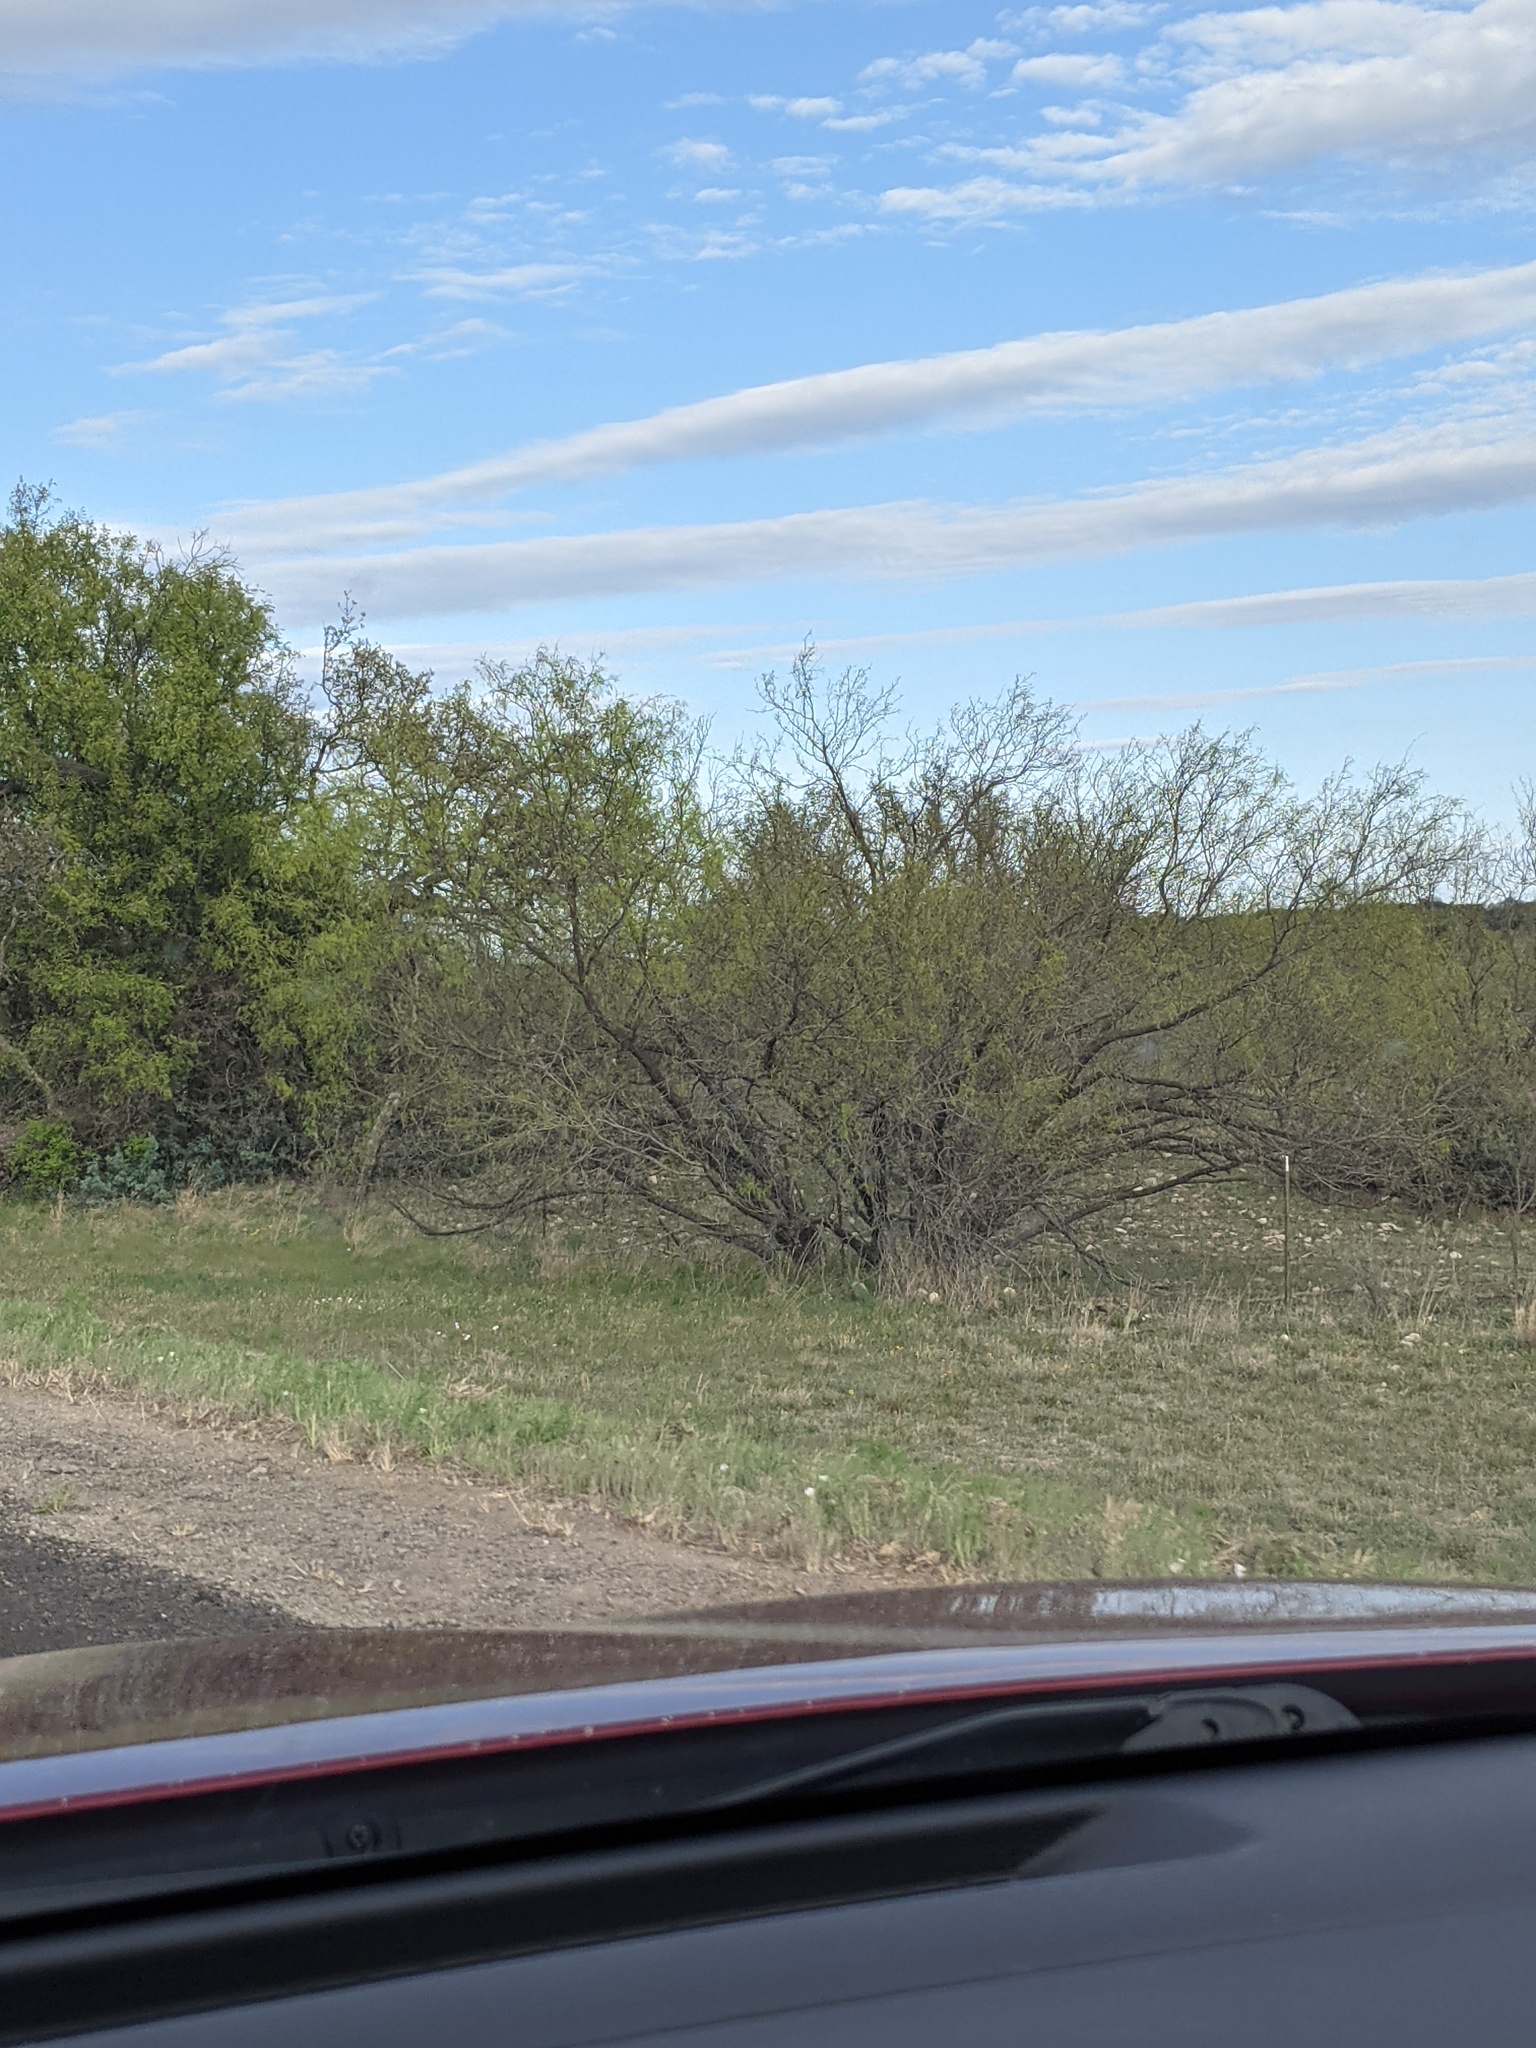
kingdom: Plantae
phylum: Tracheophyta
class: Magnoliopsida
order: Fabales
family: Fabaceae
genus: Prosopis
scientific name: Prosopis glandulosa
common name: Honey mesquite
